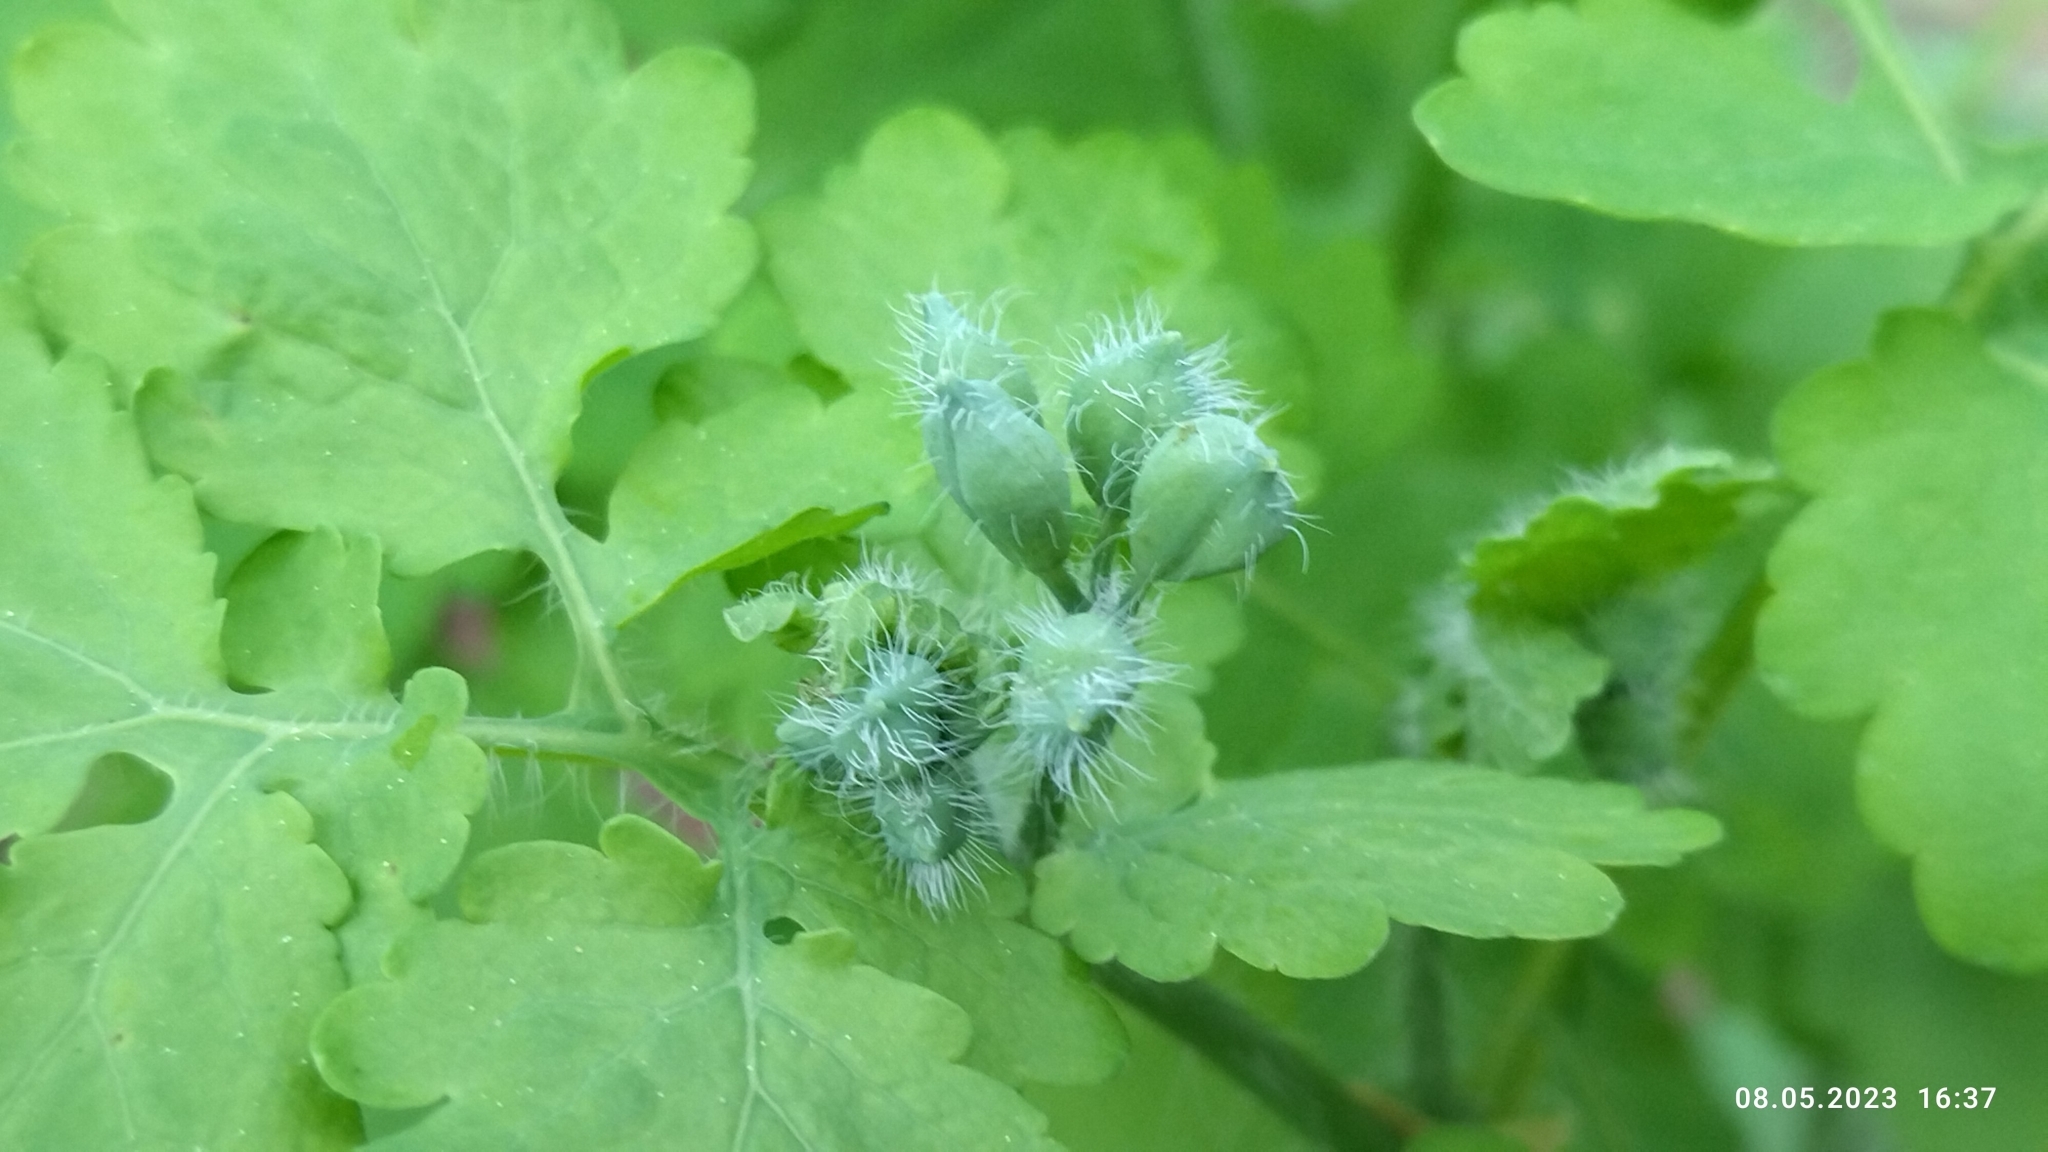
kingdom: Plantae
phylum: Tracheophyta
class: Magnoliopsida
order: Ranunculales
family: Papaveraceae
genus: Chelidonium
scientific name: Chelidonium majus
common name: Greater celandine
